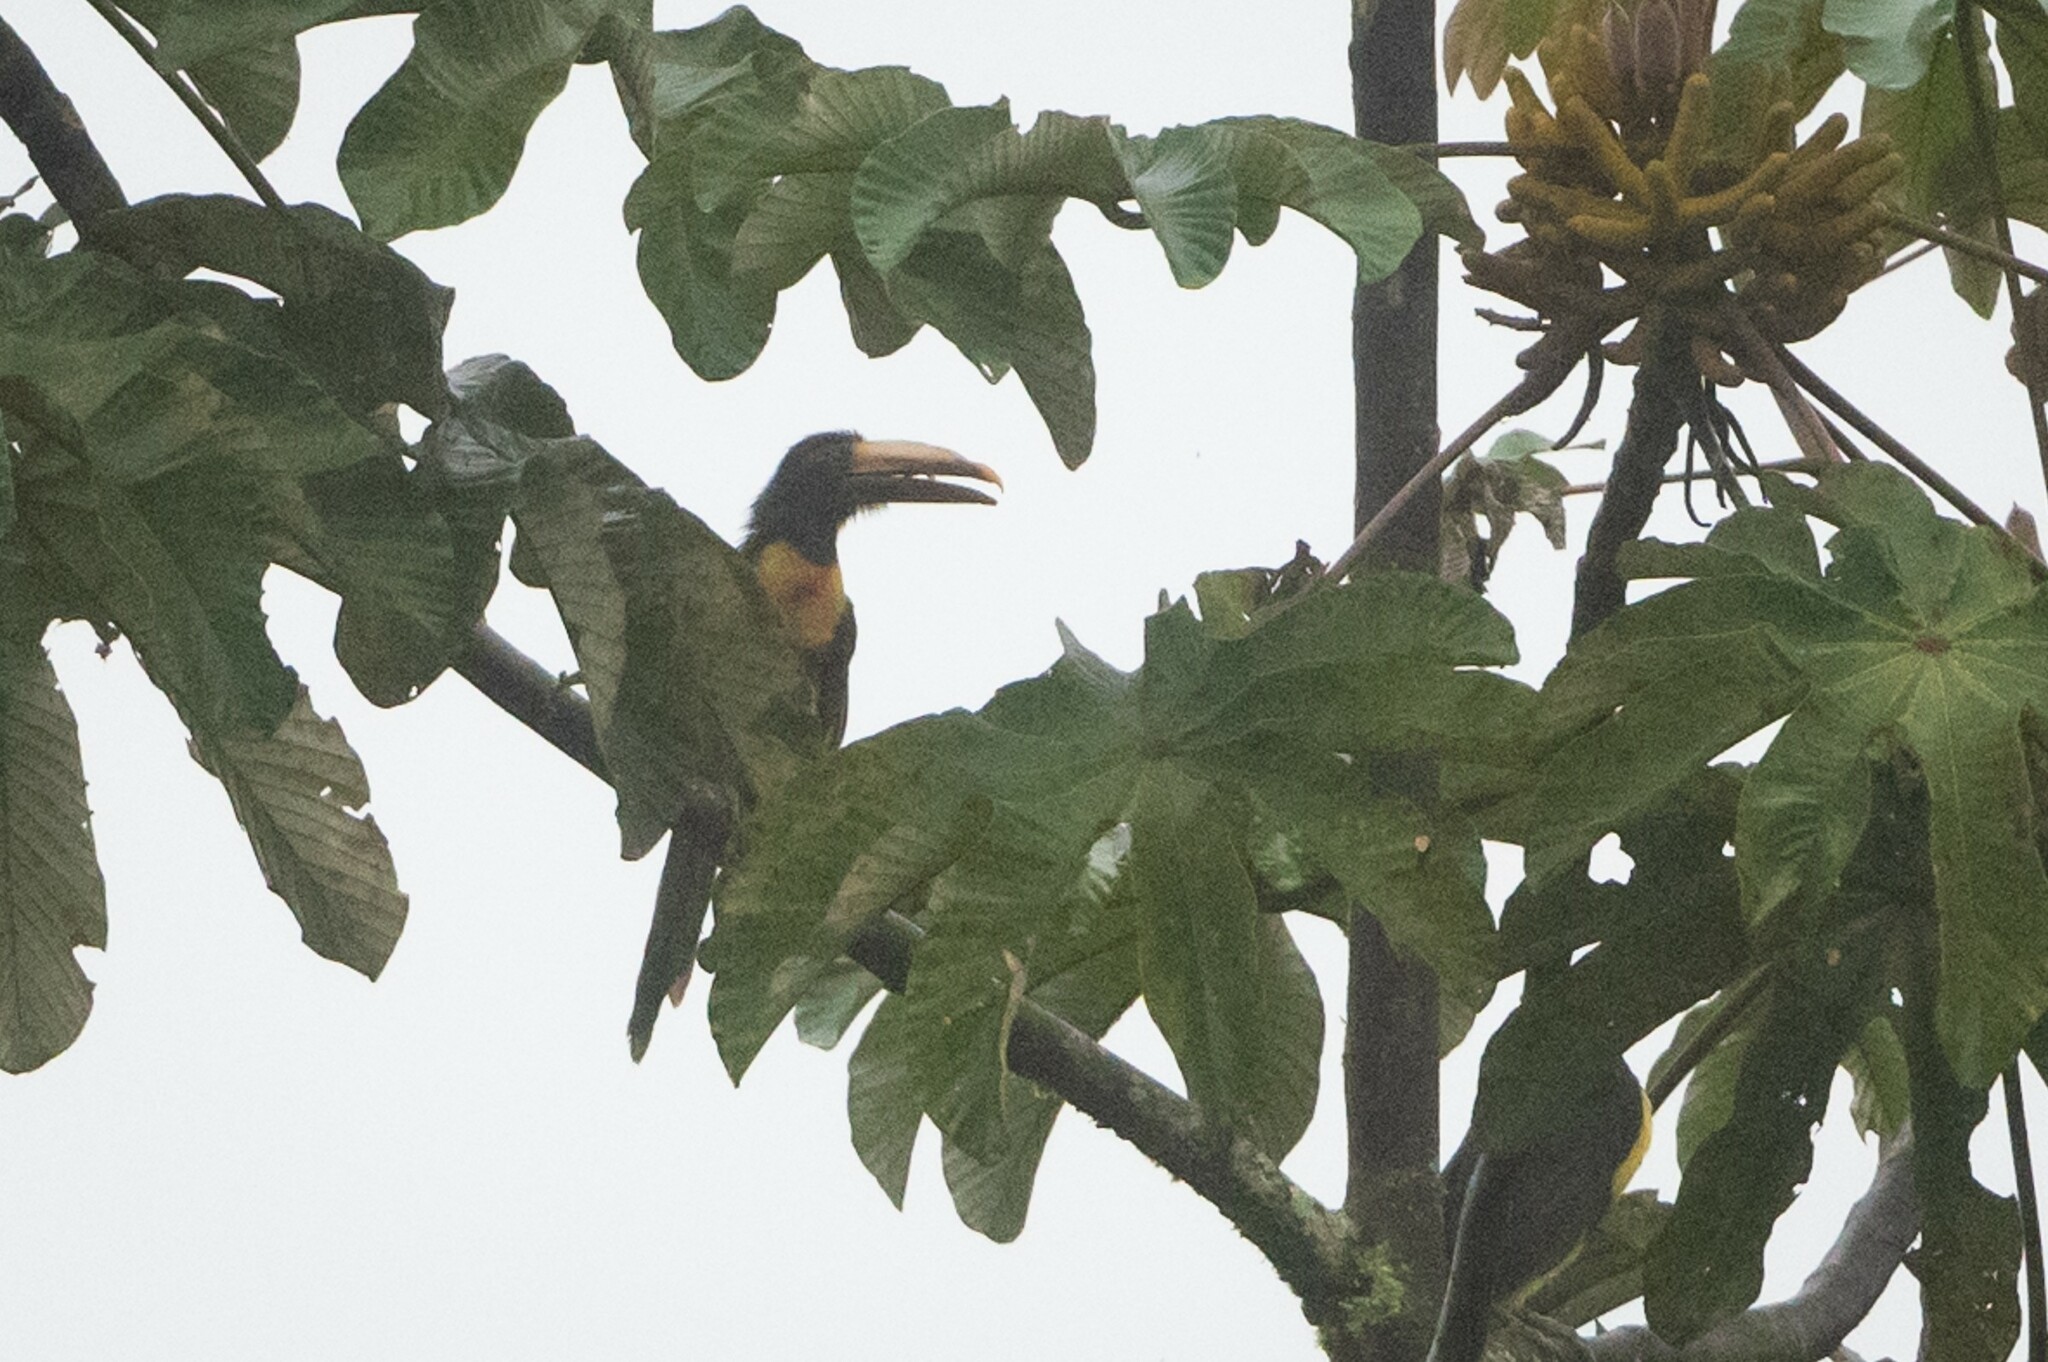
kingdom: Animalia
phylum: Chordata
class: Aves
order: Piciformes
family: Ramphastidae
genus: Pteroglossus
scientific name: Pteroglossus torquatus
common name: Collared aracari
